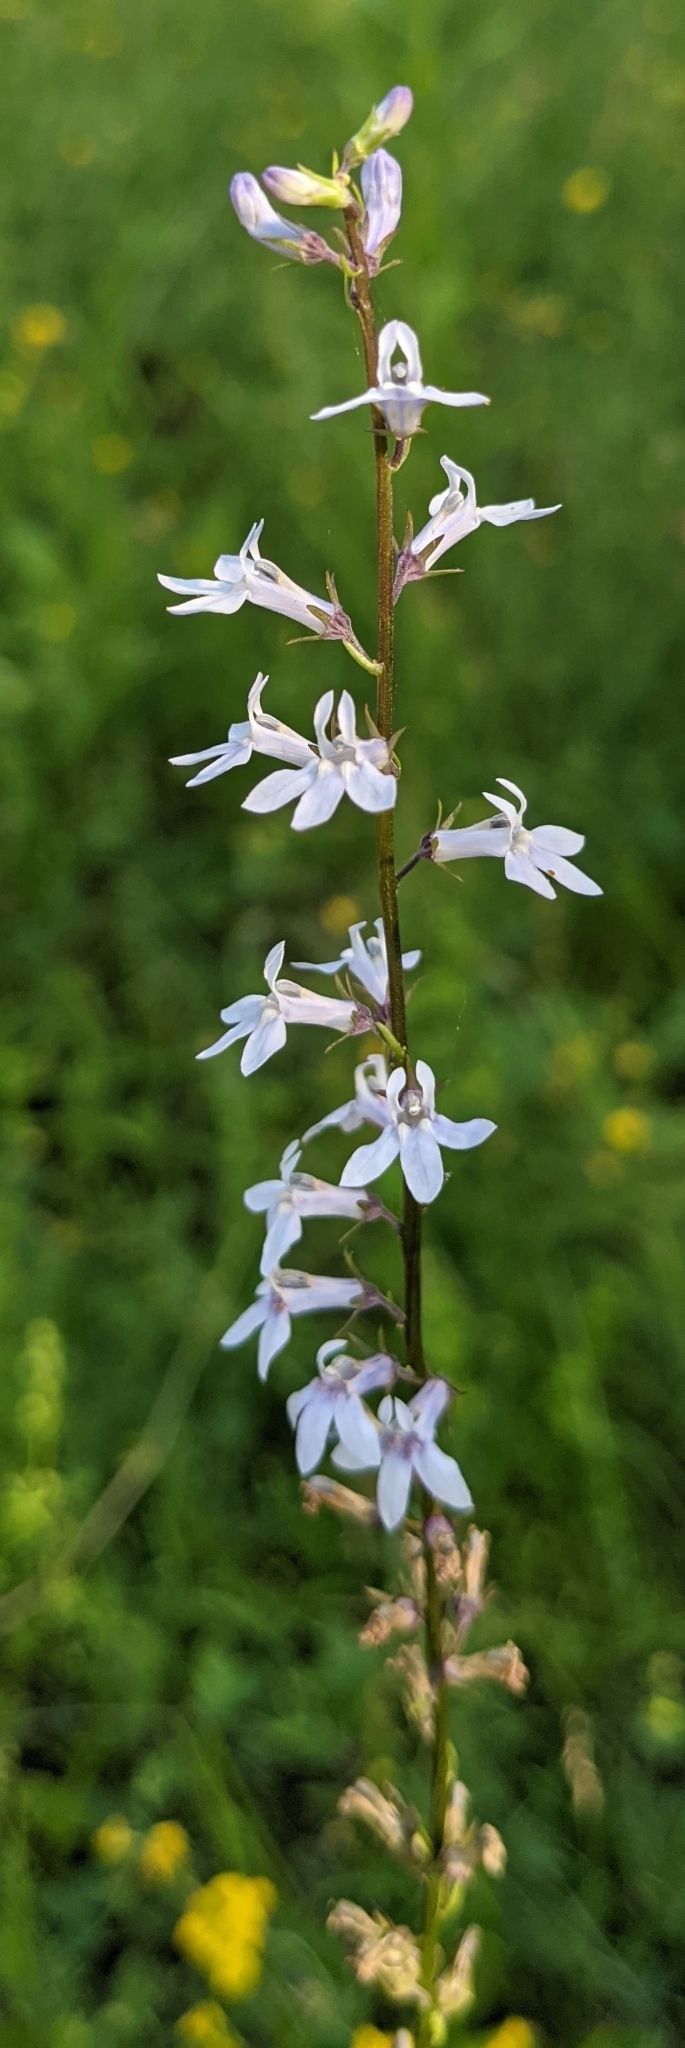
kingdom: Plantae
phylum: Tracheophyta
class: Magnoliopsida
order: Asterales
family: Campanulaceae
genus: Lobelia
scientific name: Lobelia spicata
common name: Pale-spike lobelia
